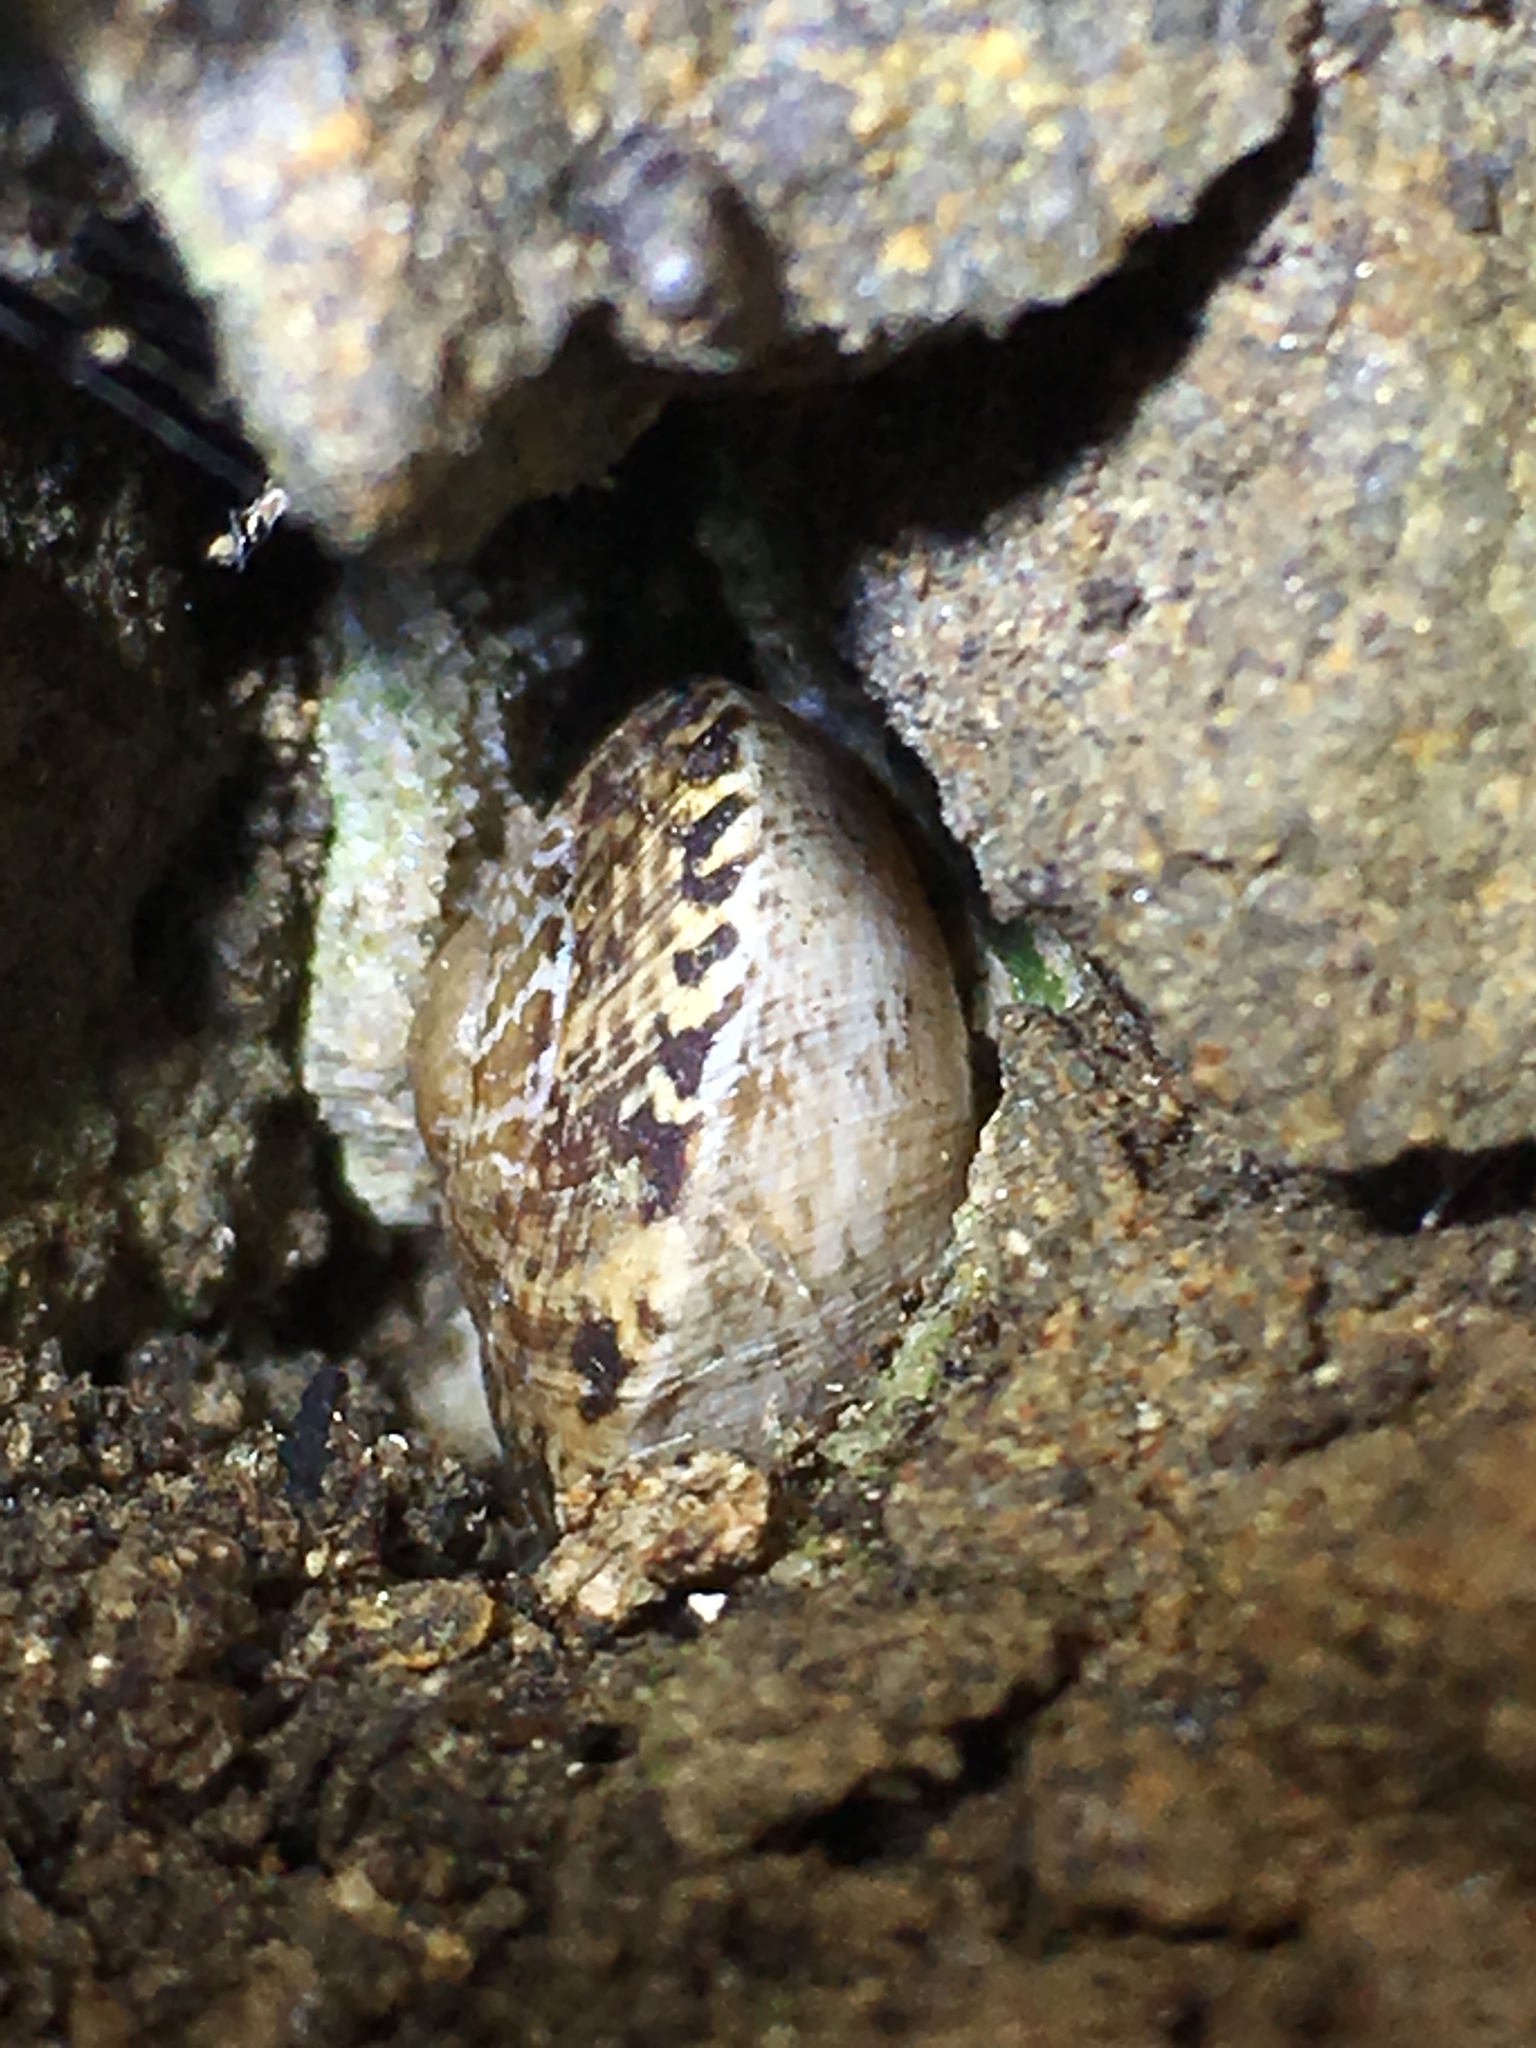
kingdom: Animalia
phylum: Mollusca
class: Gastropoda
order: Stylommatophora
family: Xanthonychidae
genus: Xerarionta
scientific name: Xerarionta tryoni
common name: Bicolor cactus snail
